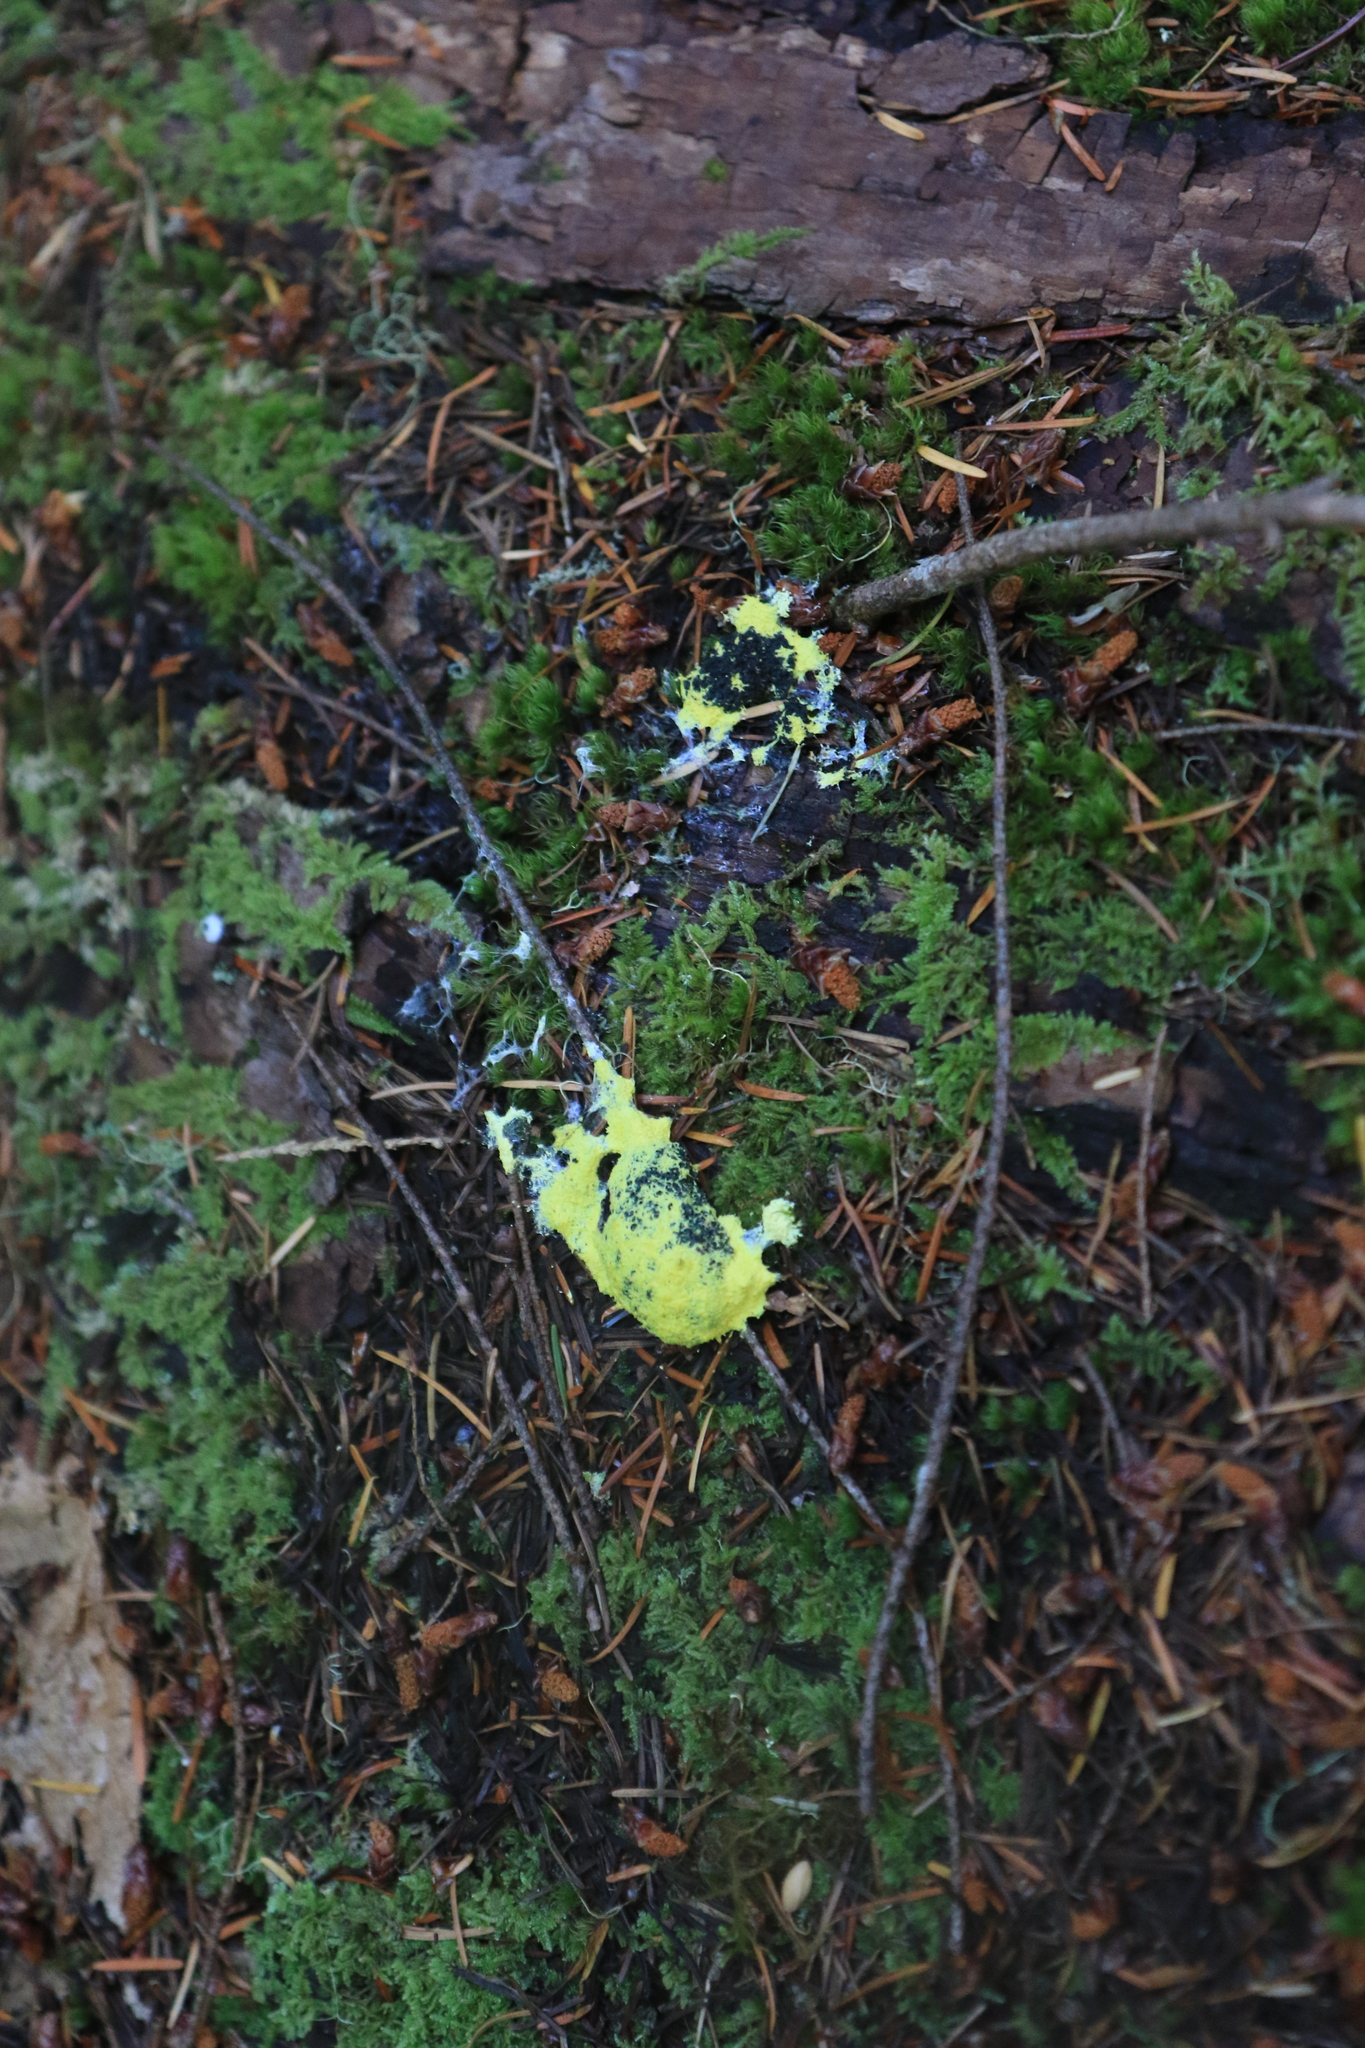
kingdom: Protozoa
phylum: Mycetozoa
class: Myxomycetes
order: Physarales
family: Physaraceae
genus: Fuligo
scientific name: Fuligo septica
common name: Dog vomit slime mold
